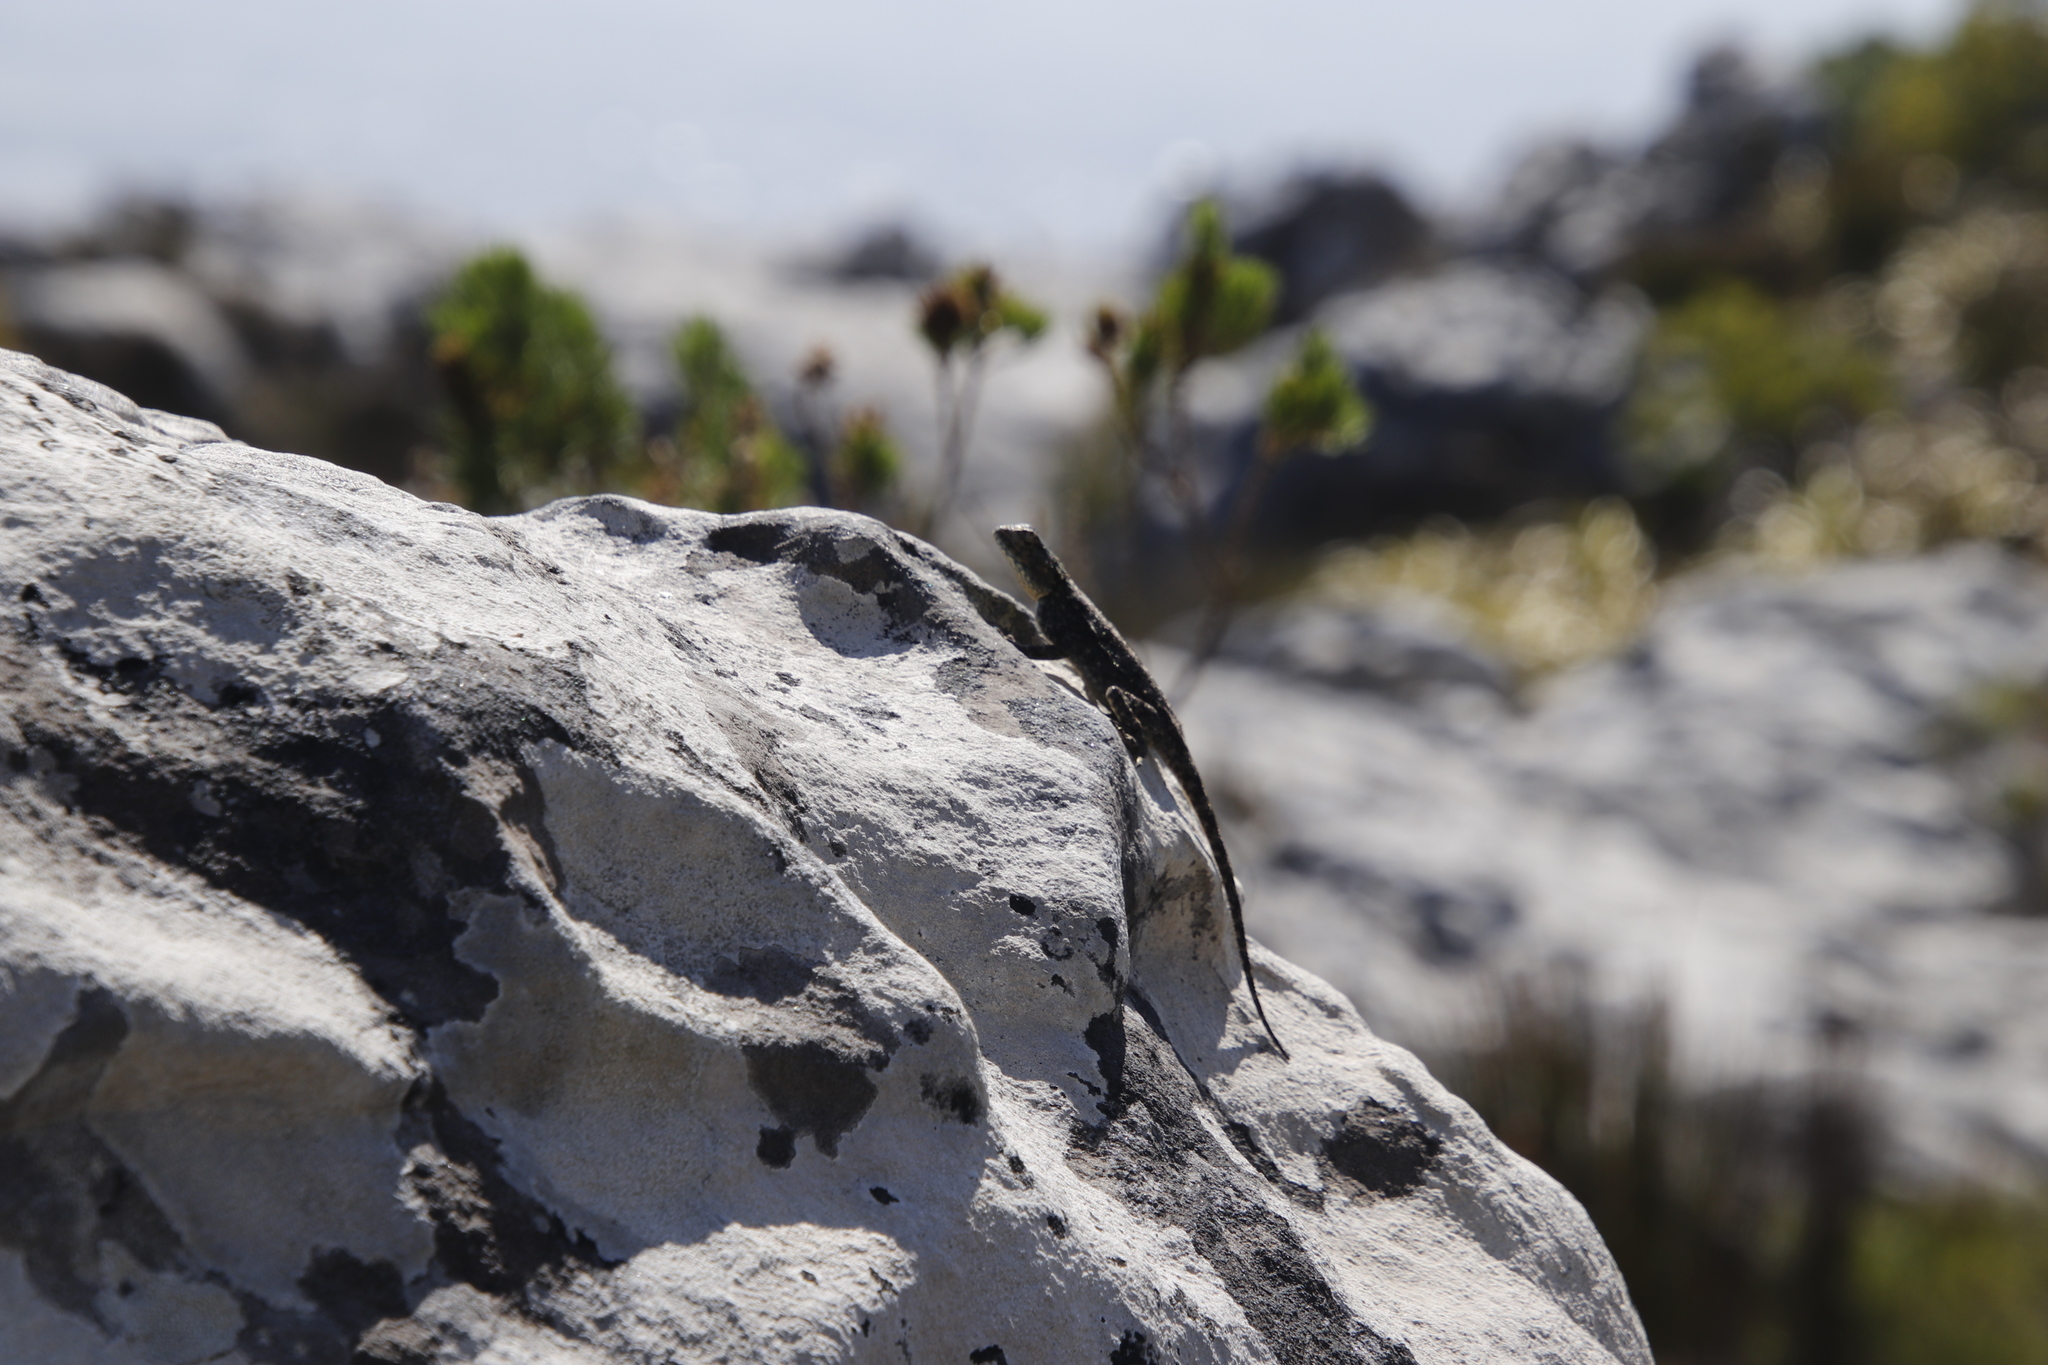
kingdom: Animalia
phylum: Chordata
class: Squamata
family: Agamidae
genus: Agama
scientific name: Agama atra
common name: Southern african rock agama
